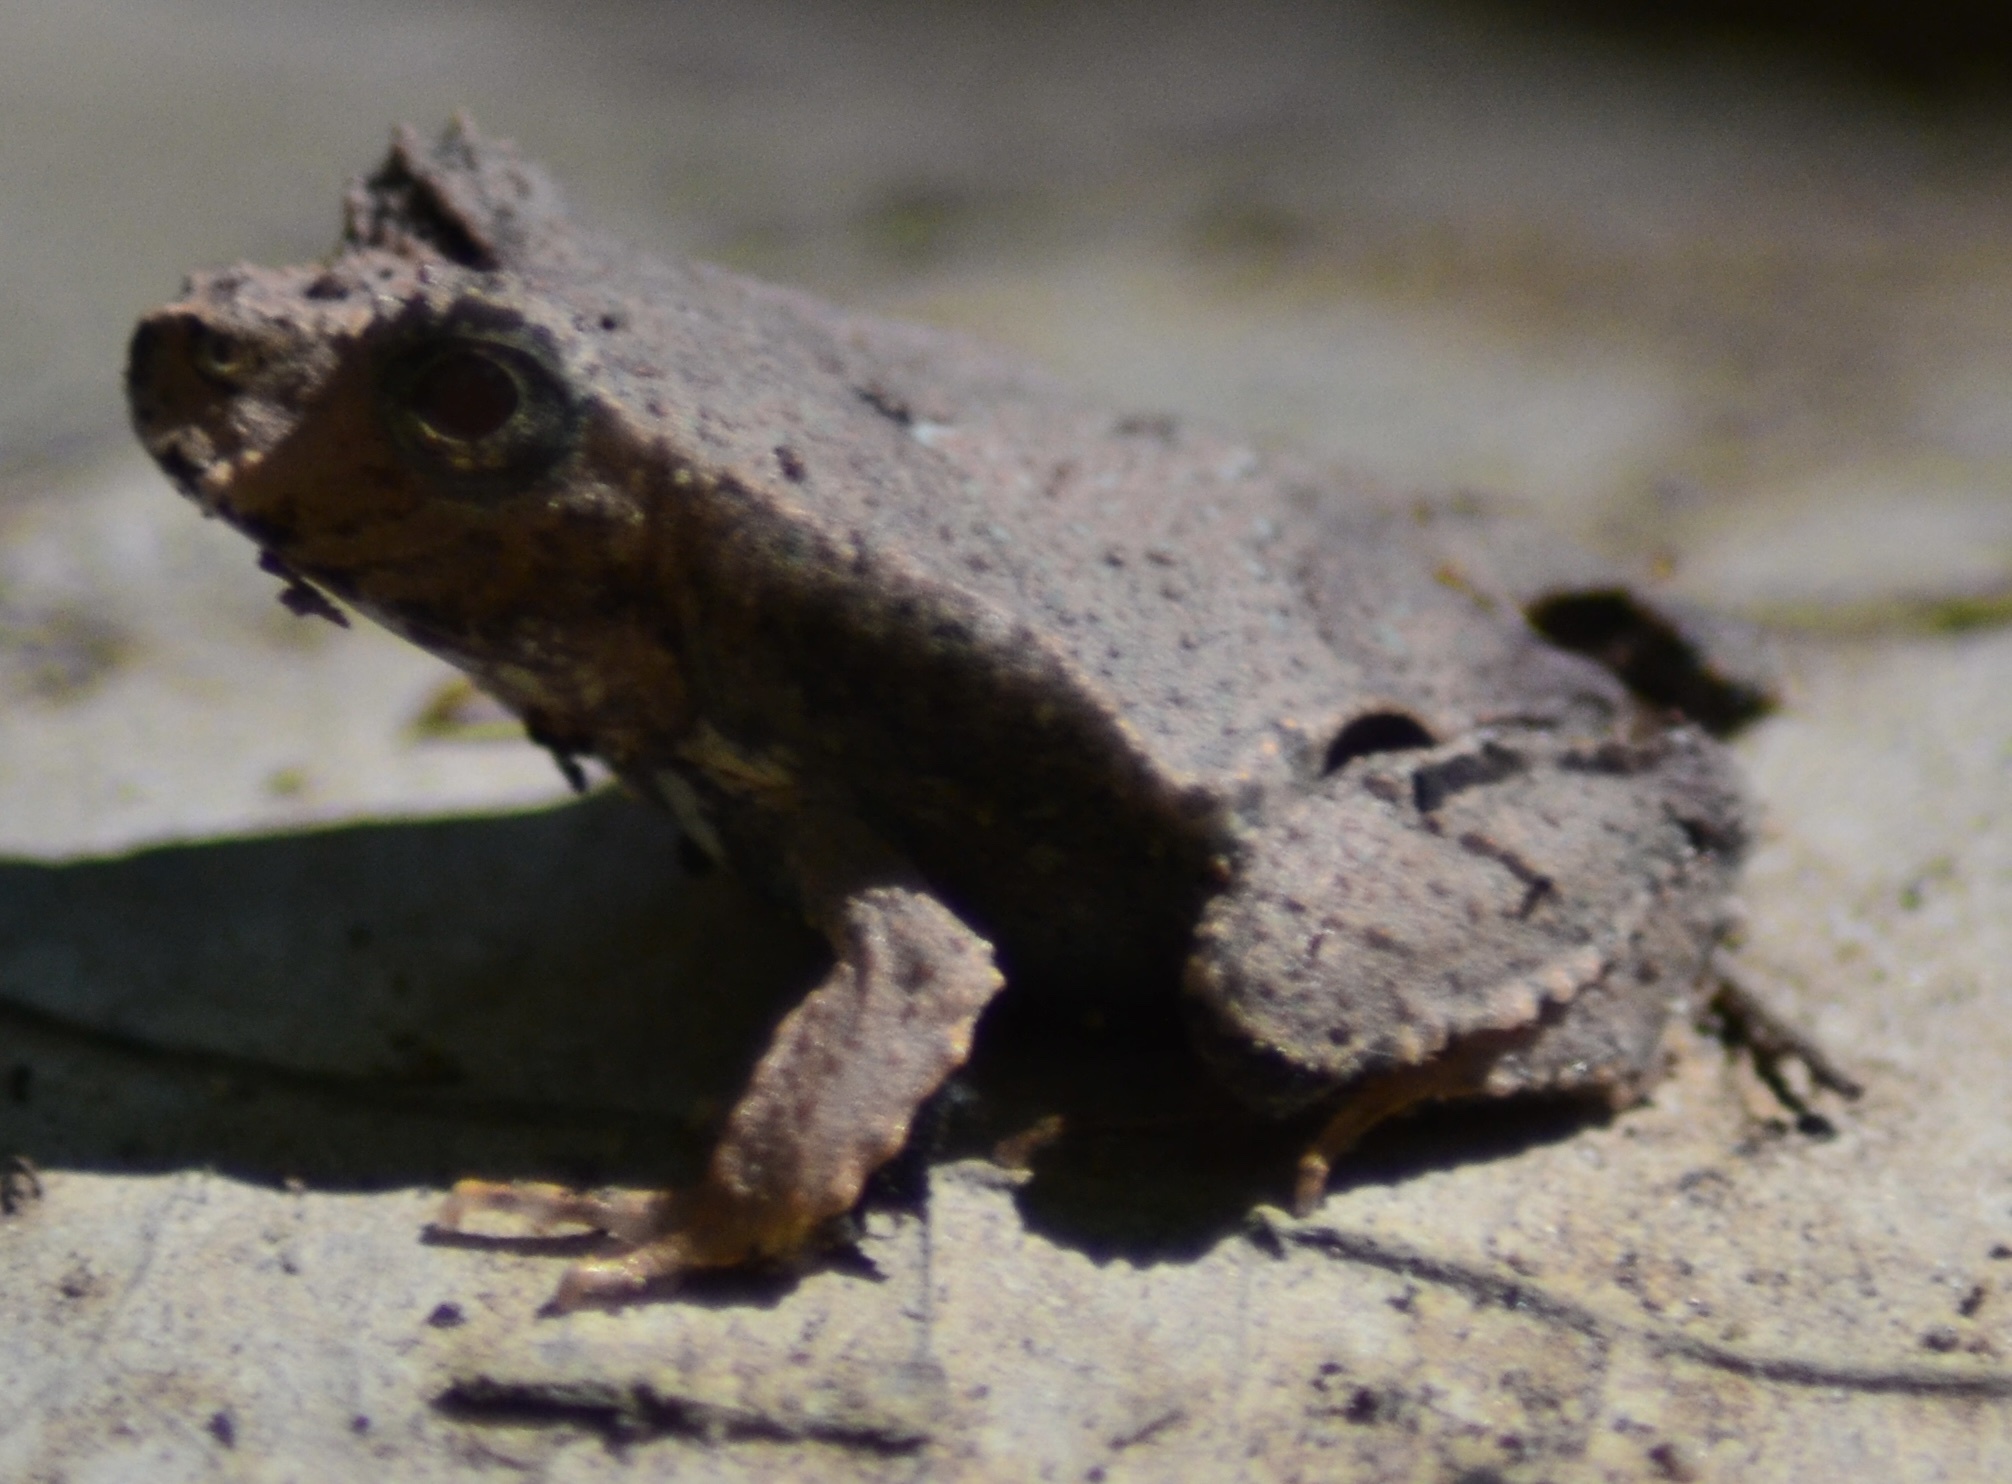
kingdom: Animalia
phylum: Chordata
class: Amphibia
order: Anura
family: Leptodactylidae
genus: Edalorhina
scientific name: Edalorhina perezi
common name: Perez’s snouted frog
